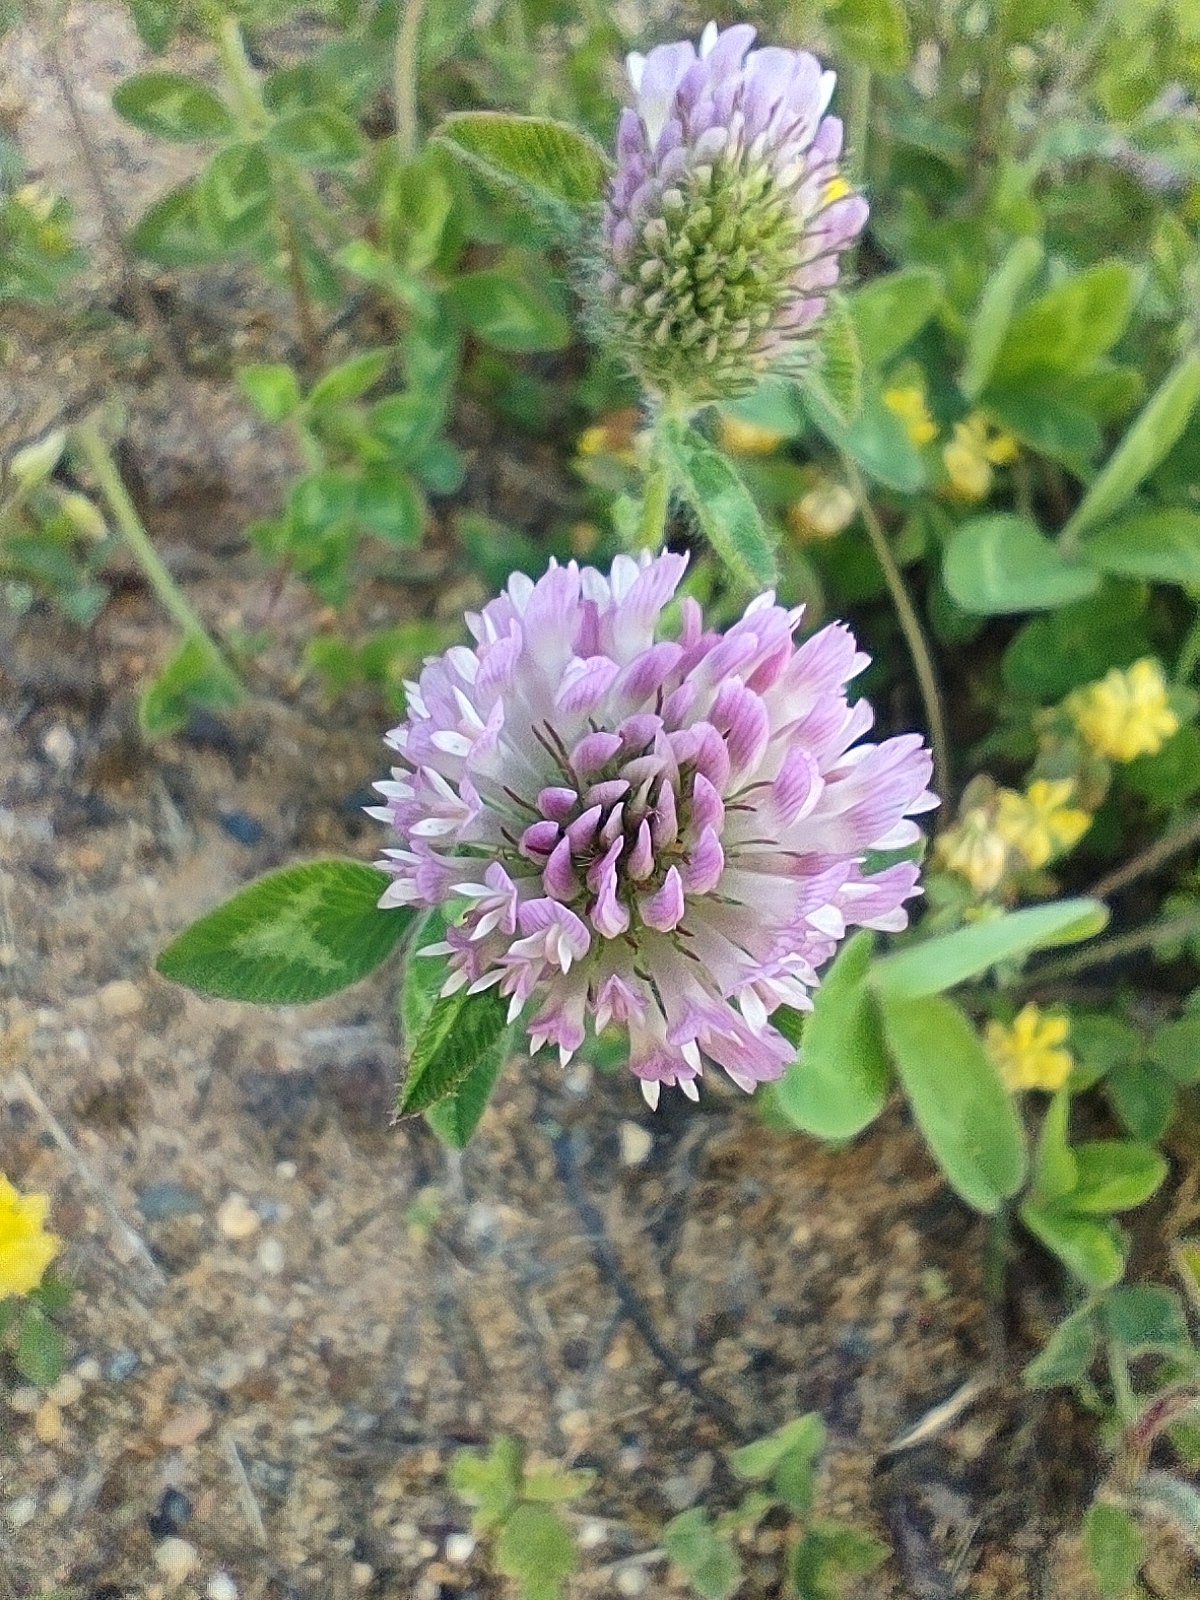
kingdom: Plantae
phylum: Tracheophyta
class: Magnoliopsida
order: Fabales
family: Fabaceae
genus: Trifolium
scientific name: Trifolium pratense
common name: Red clover
